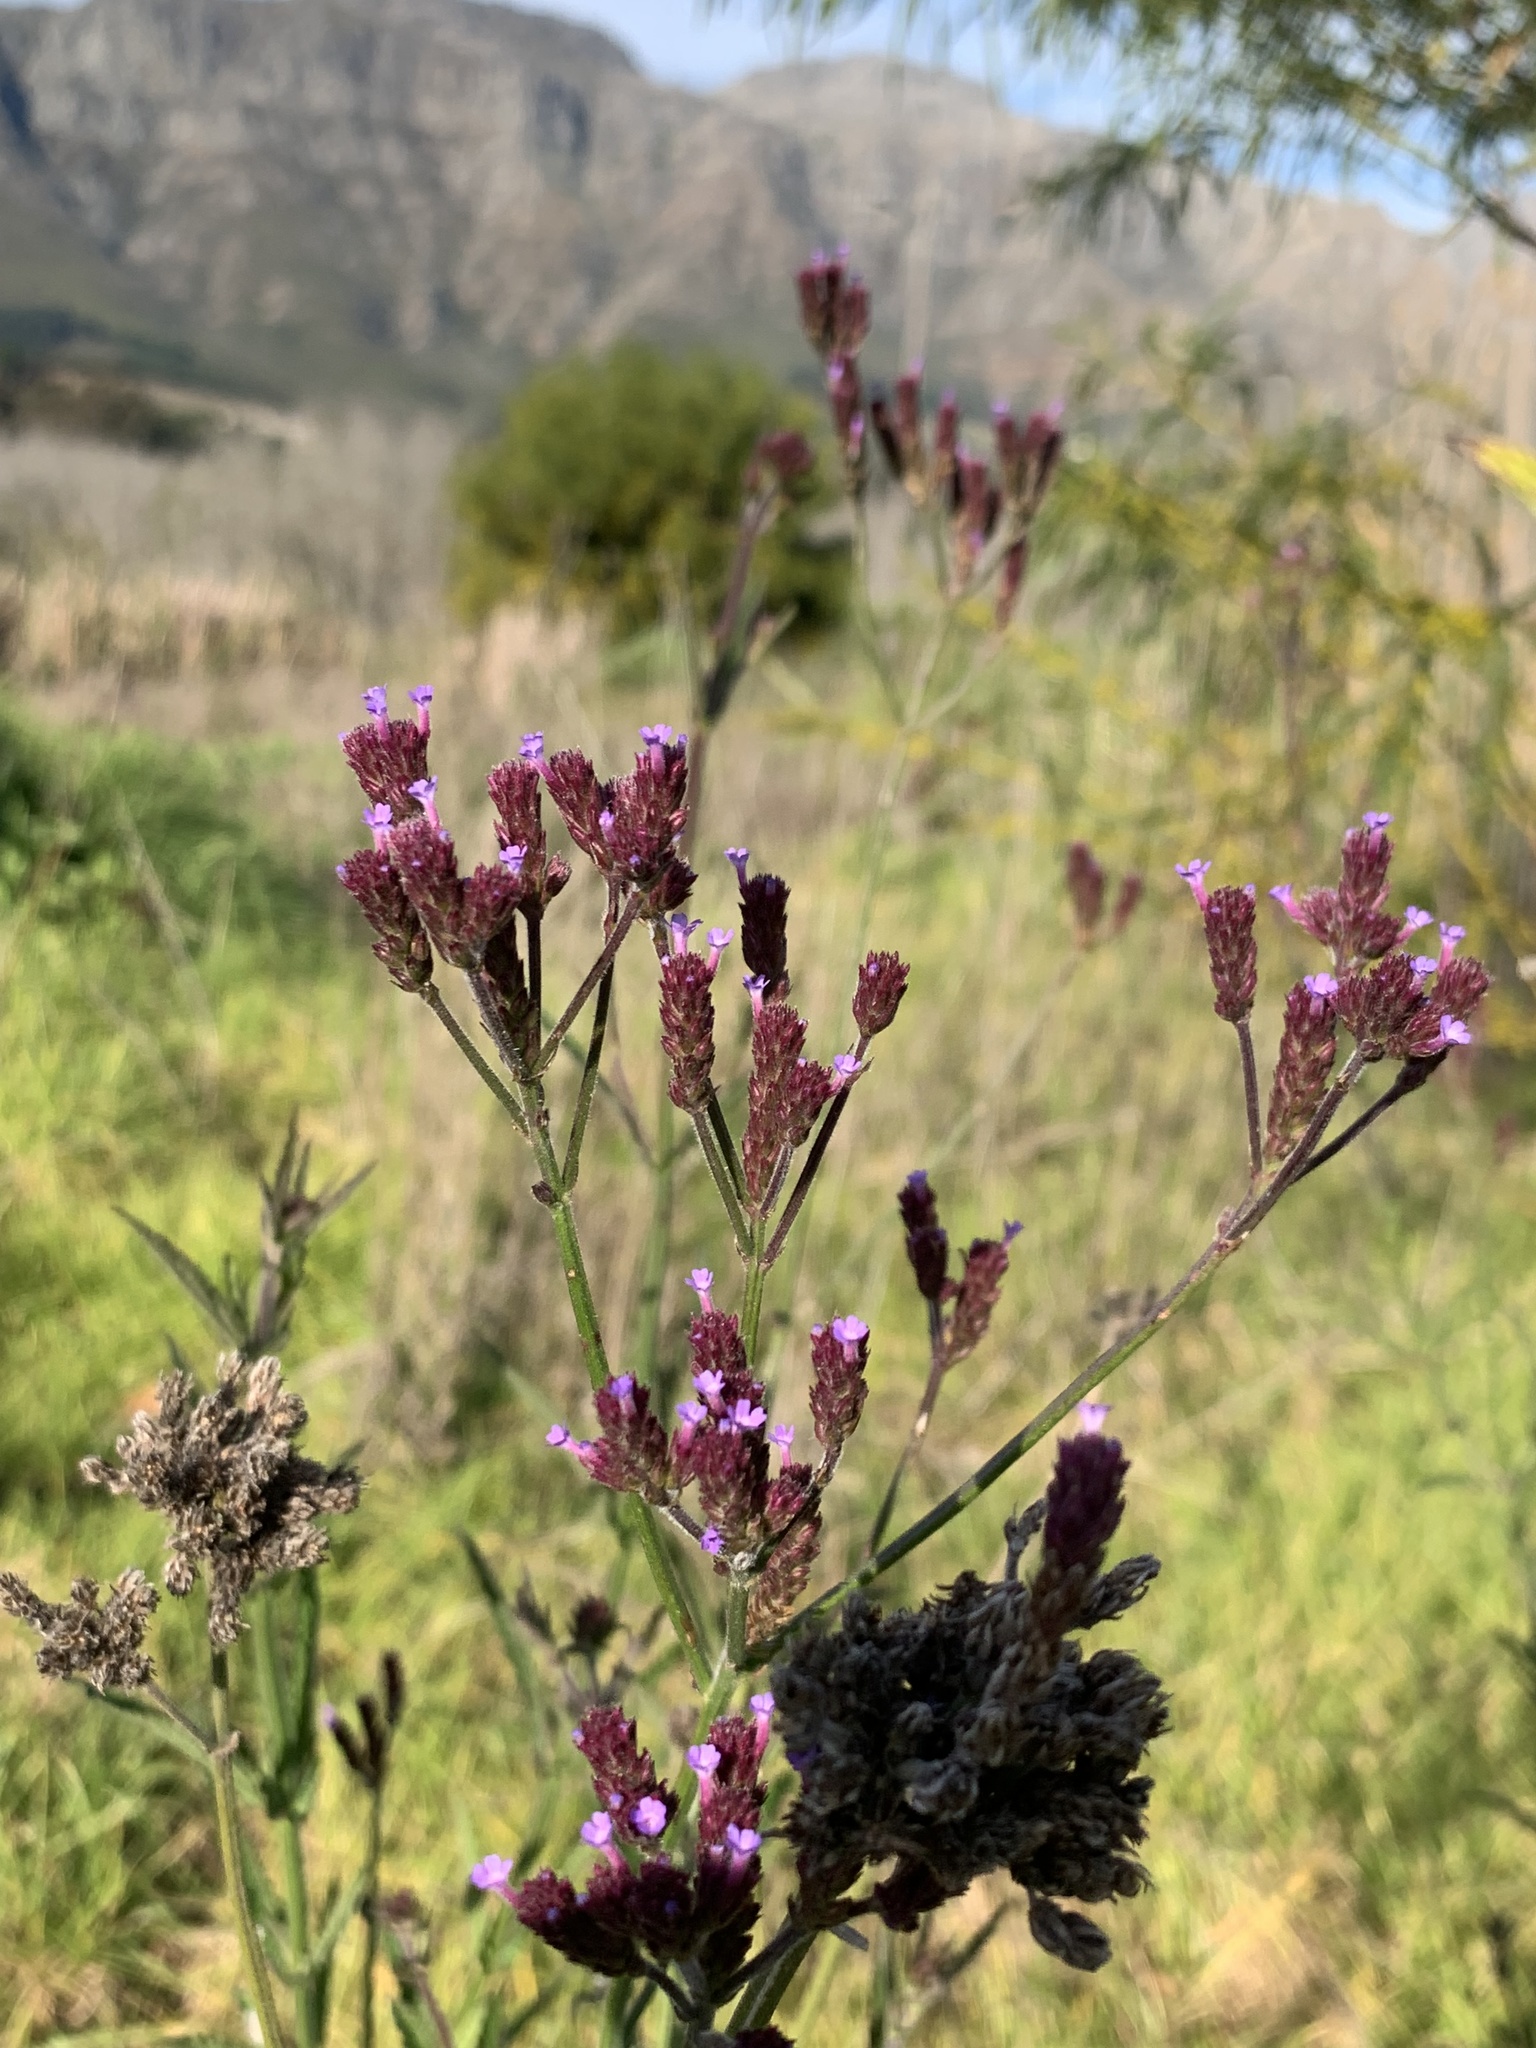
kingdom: Plantae
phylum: Tracheophyta
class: Magnoliopsida
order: Lamiales
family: Verbenaceae
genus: Verbena
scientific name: Verbena bonariensis
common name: Purpletop vervain
